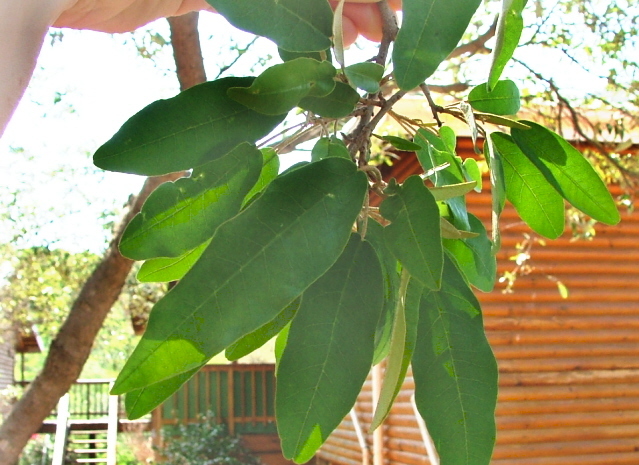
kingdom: Plantae
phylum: Tracheophyta
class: Magnoliopsida
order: Malpighiales
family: Euphorbiaceae
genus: Croton
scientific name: Croton gratissimus
